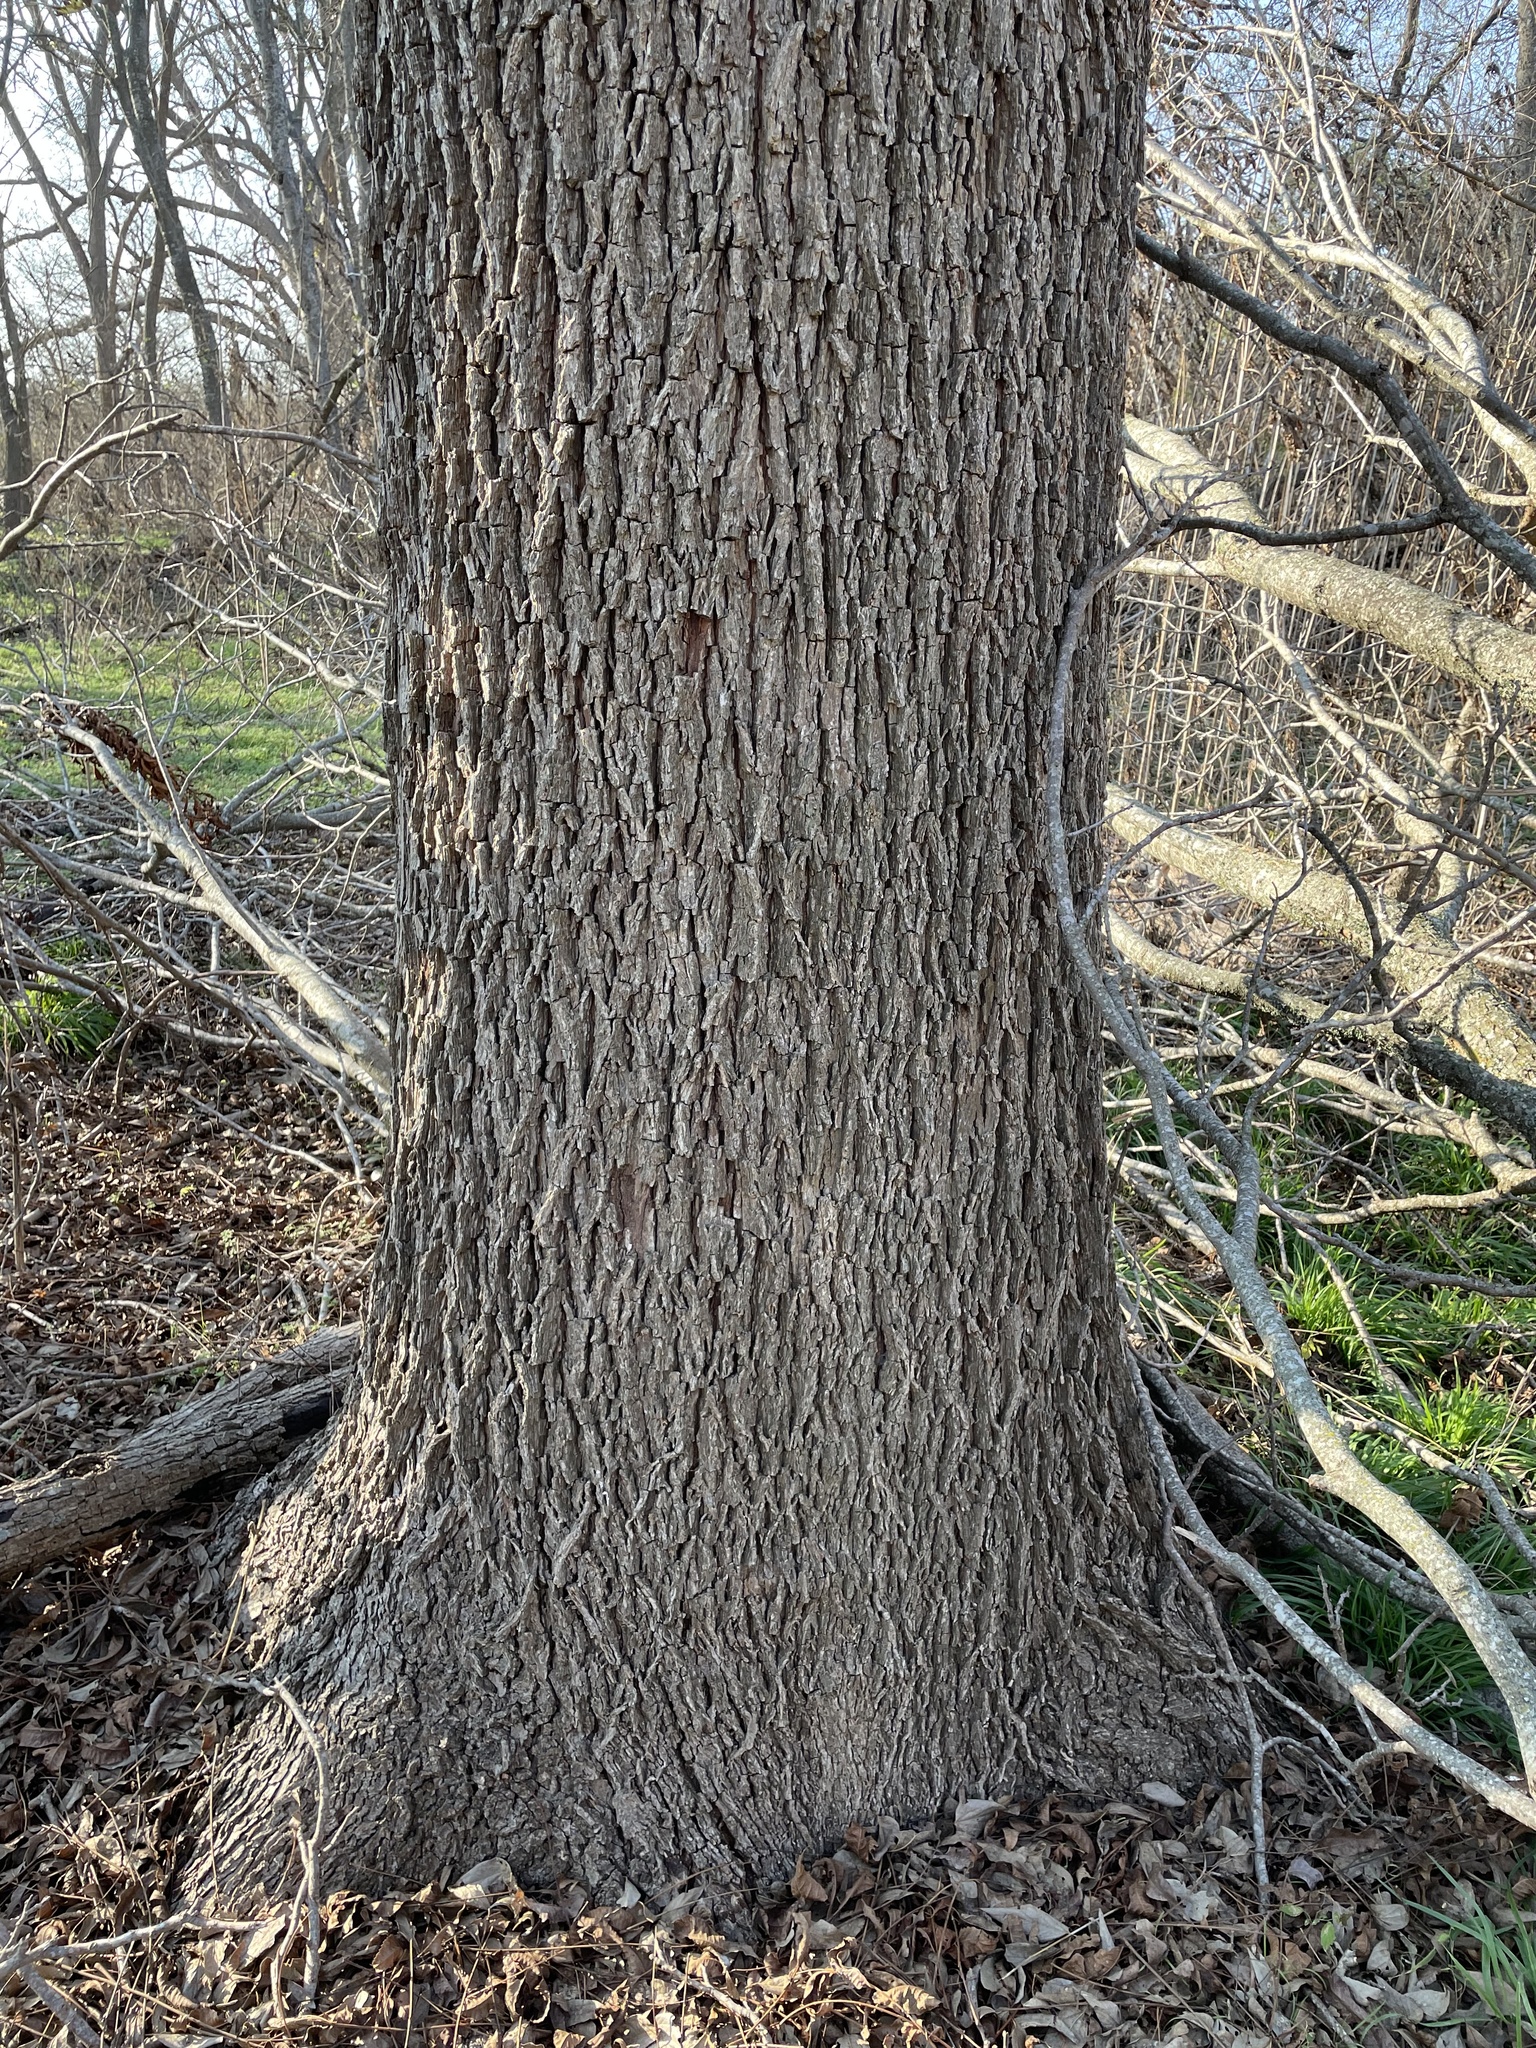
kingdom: Plantae
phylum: Tracheophyta
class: Magnoliopsida
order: Fagales
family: Juglandaceae
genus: Carya
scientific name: Carya illinoinensis
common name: Pecan
